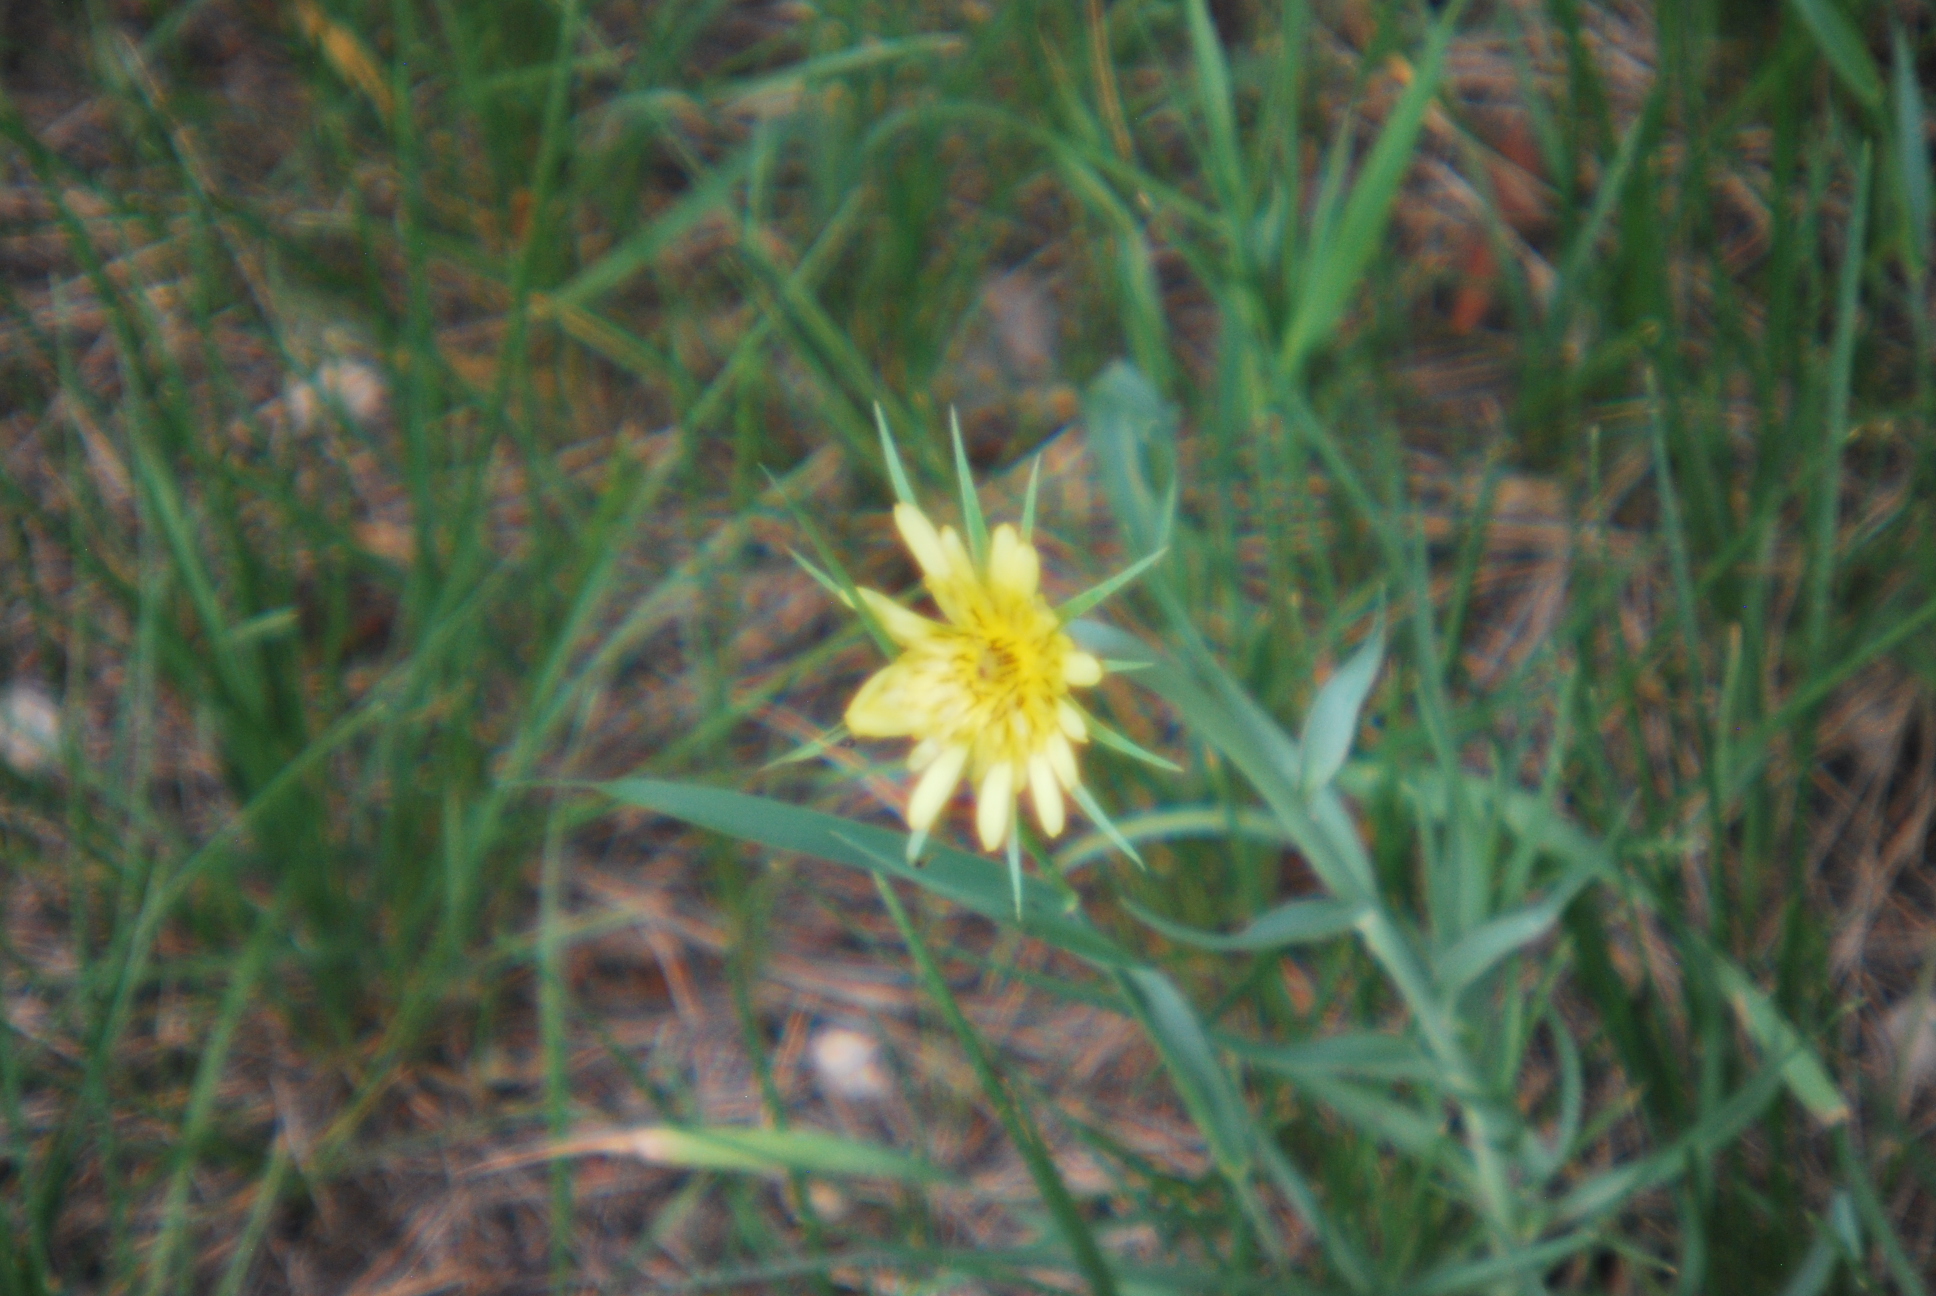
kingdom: Plantae
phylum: Tracheophyta
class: Magnoliopsida
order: Asterales
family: Asteraceae
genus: Tragopogon
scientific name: Tragopogon dubius
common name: Yellow salsify
